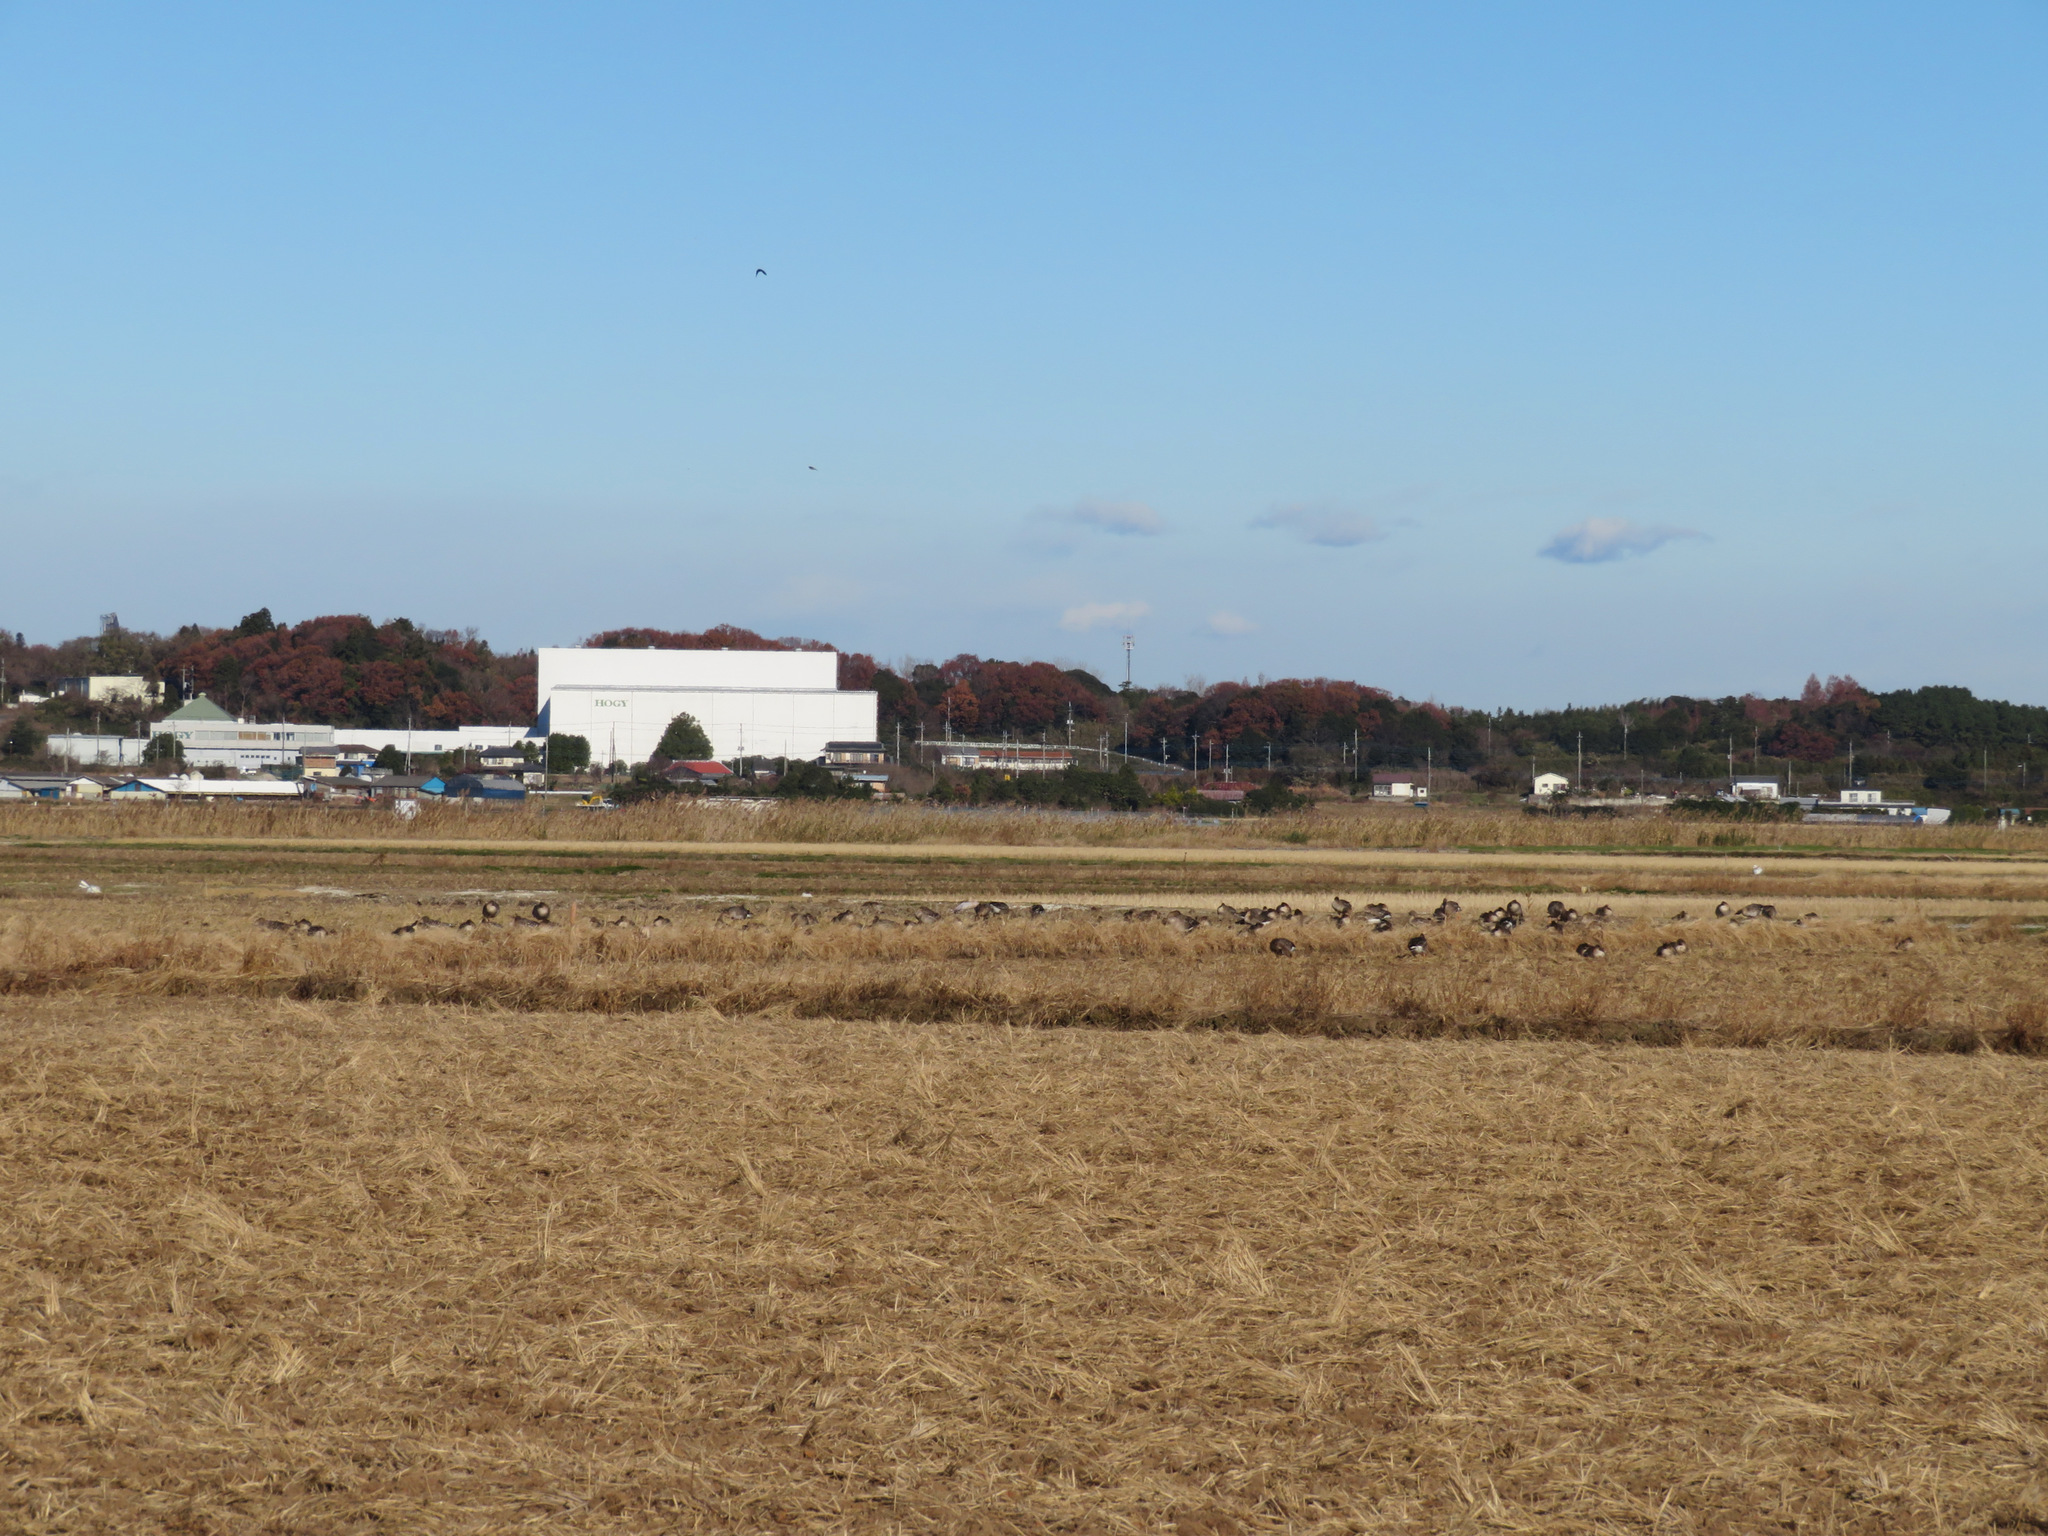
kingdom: Animalia
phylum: Chordata
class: Aves
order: Anseriformes
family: Anatidae
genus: Anser
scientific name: Anser fabalis
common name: Bean goose
